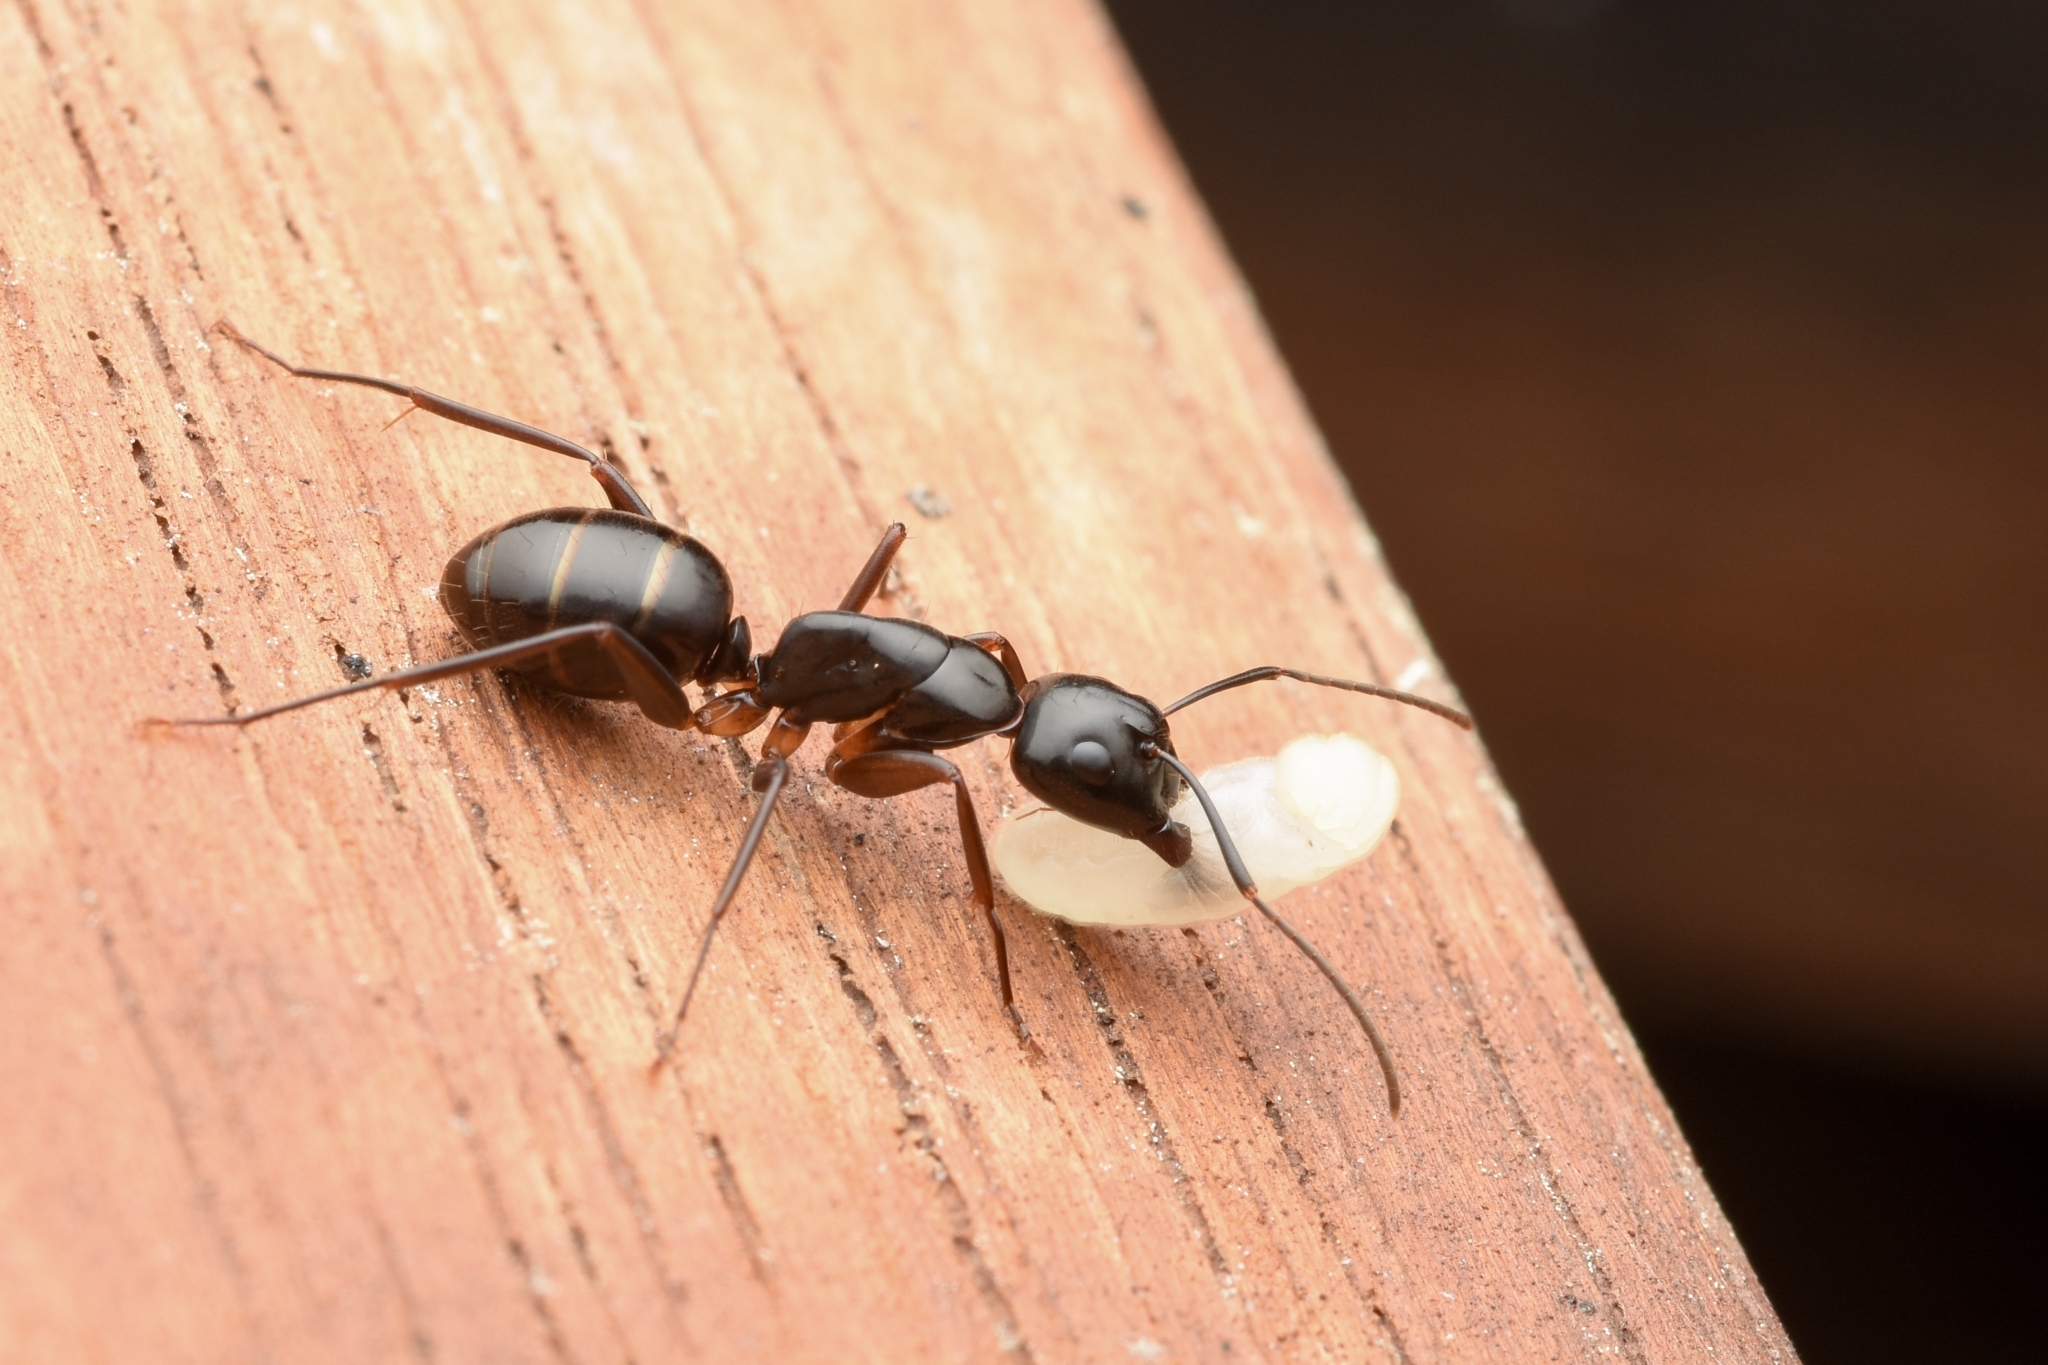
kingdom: Animalia
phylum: Arthropoda
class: Insecta
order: Hymenoptera
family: Formicidae
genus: Camponotus
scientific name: Camponotus kiusiuensis
